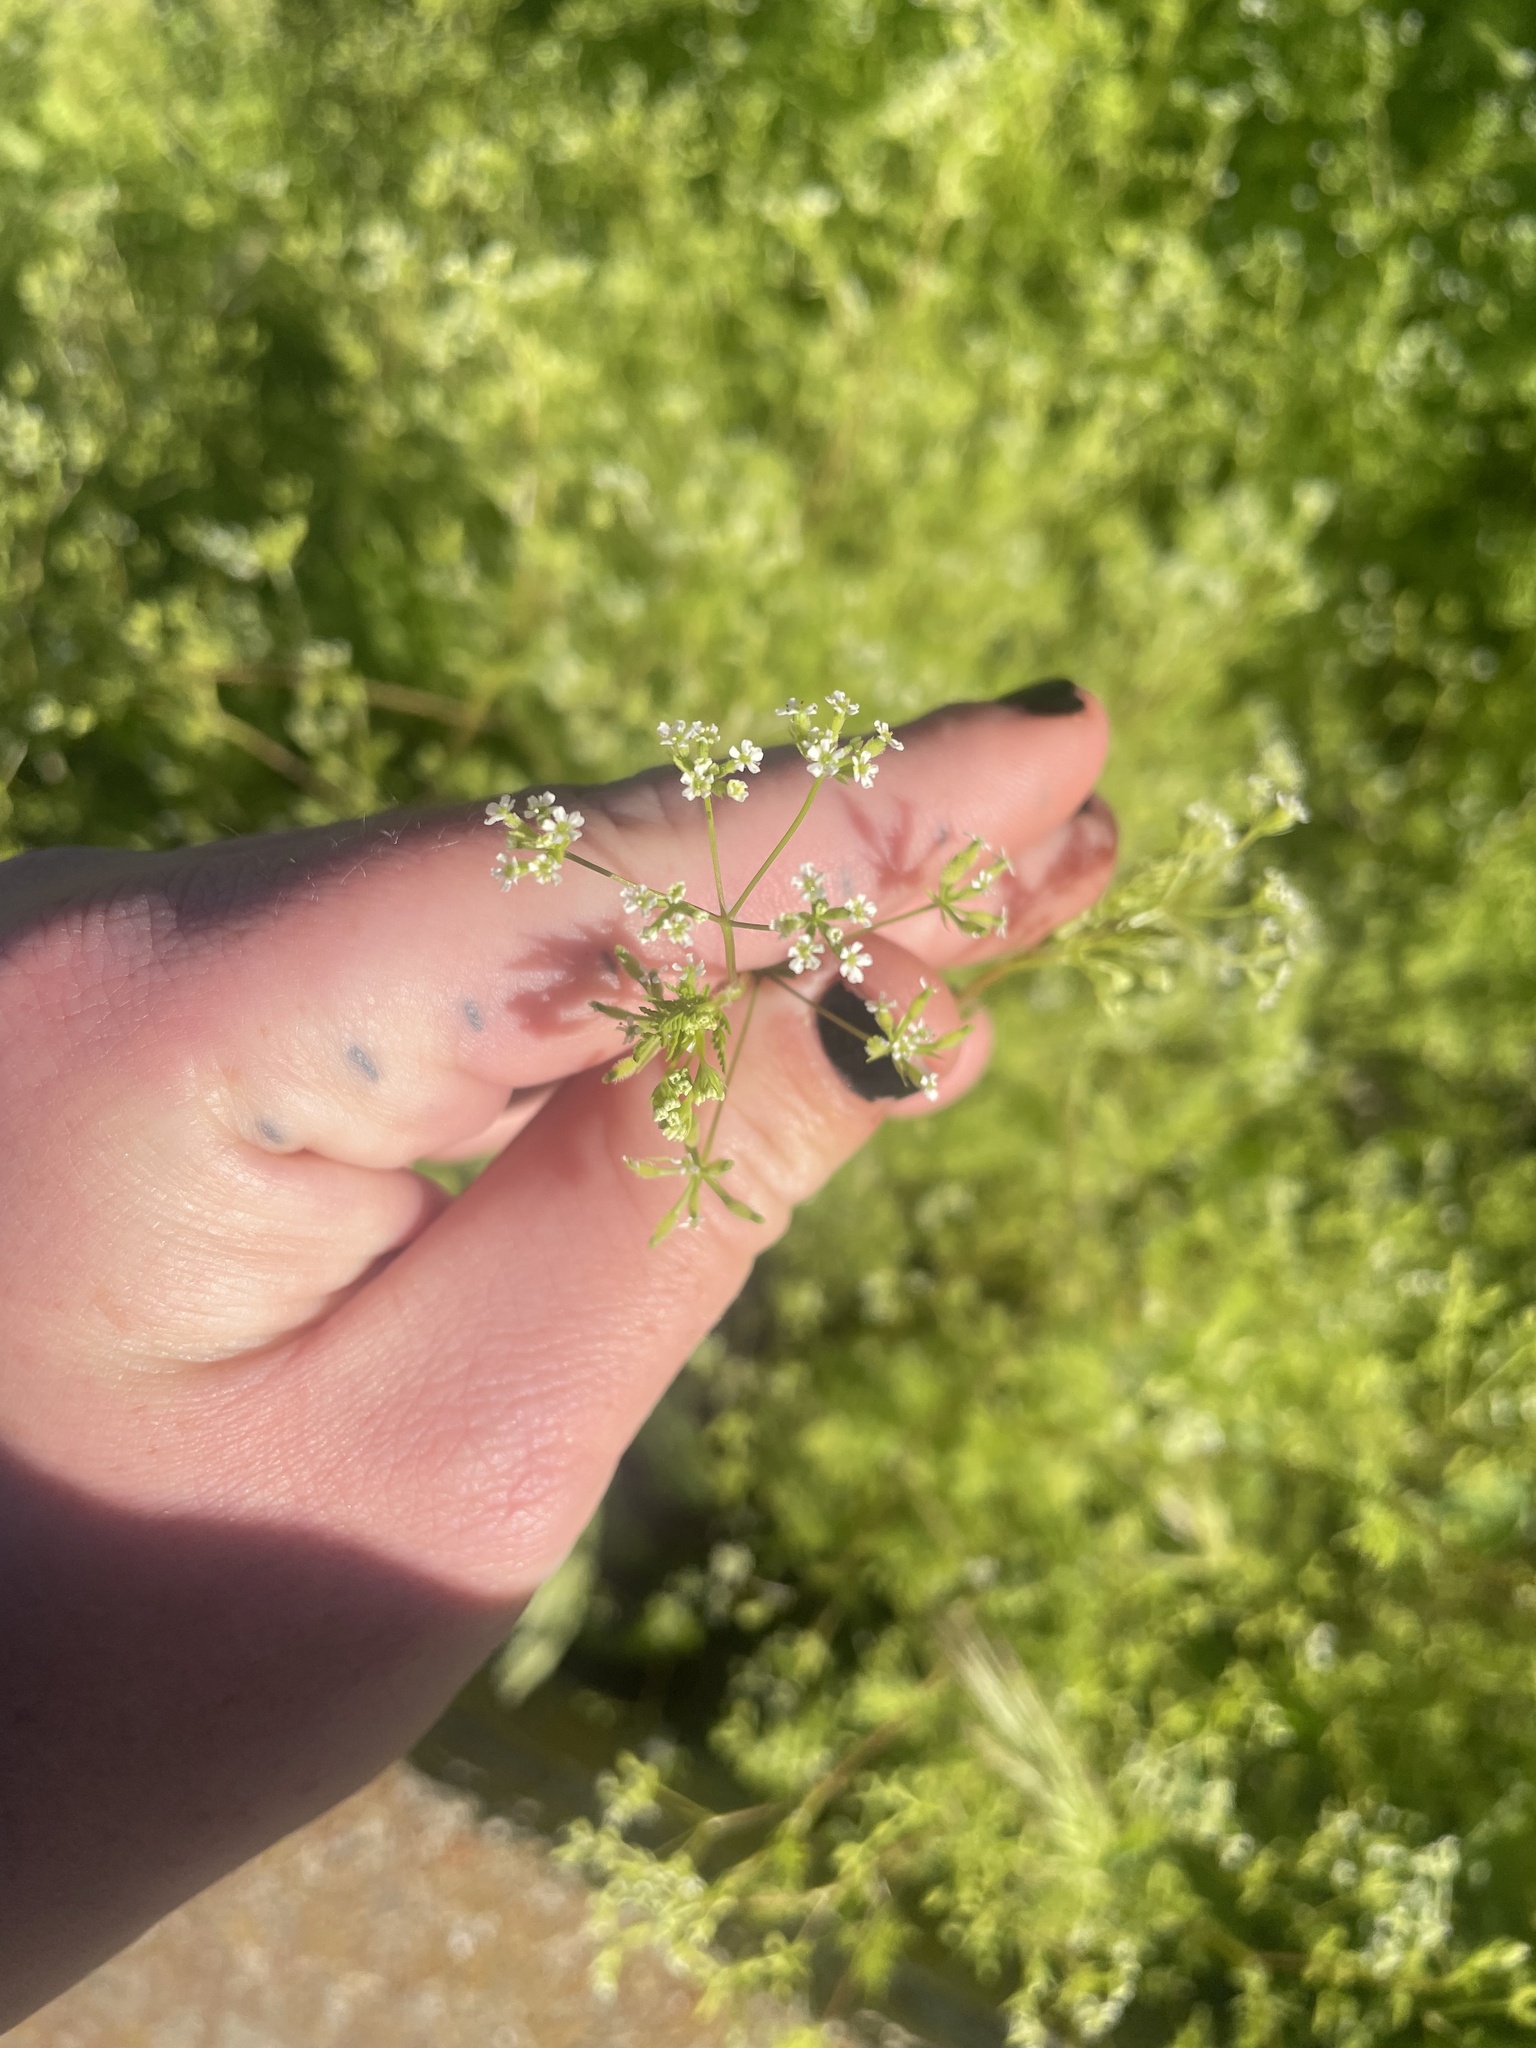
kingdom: Plantae
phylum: Tracheophyta
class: Magnoliopsida
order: Apiales
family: Apiaceae
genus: Anthriscus
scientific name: Anthriscus caucalis
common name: Bur chervil
